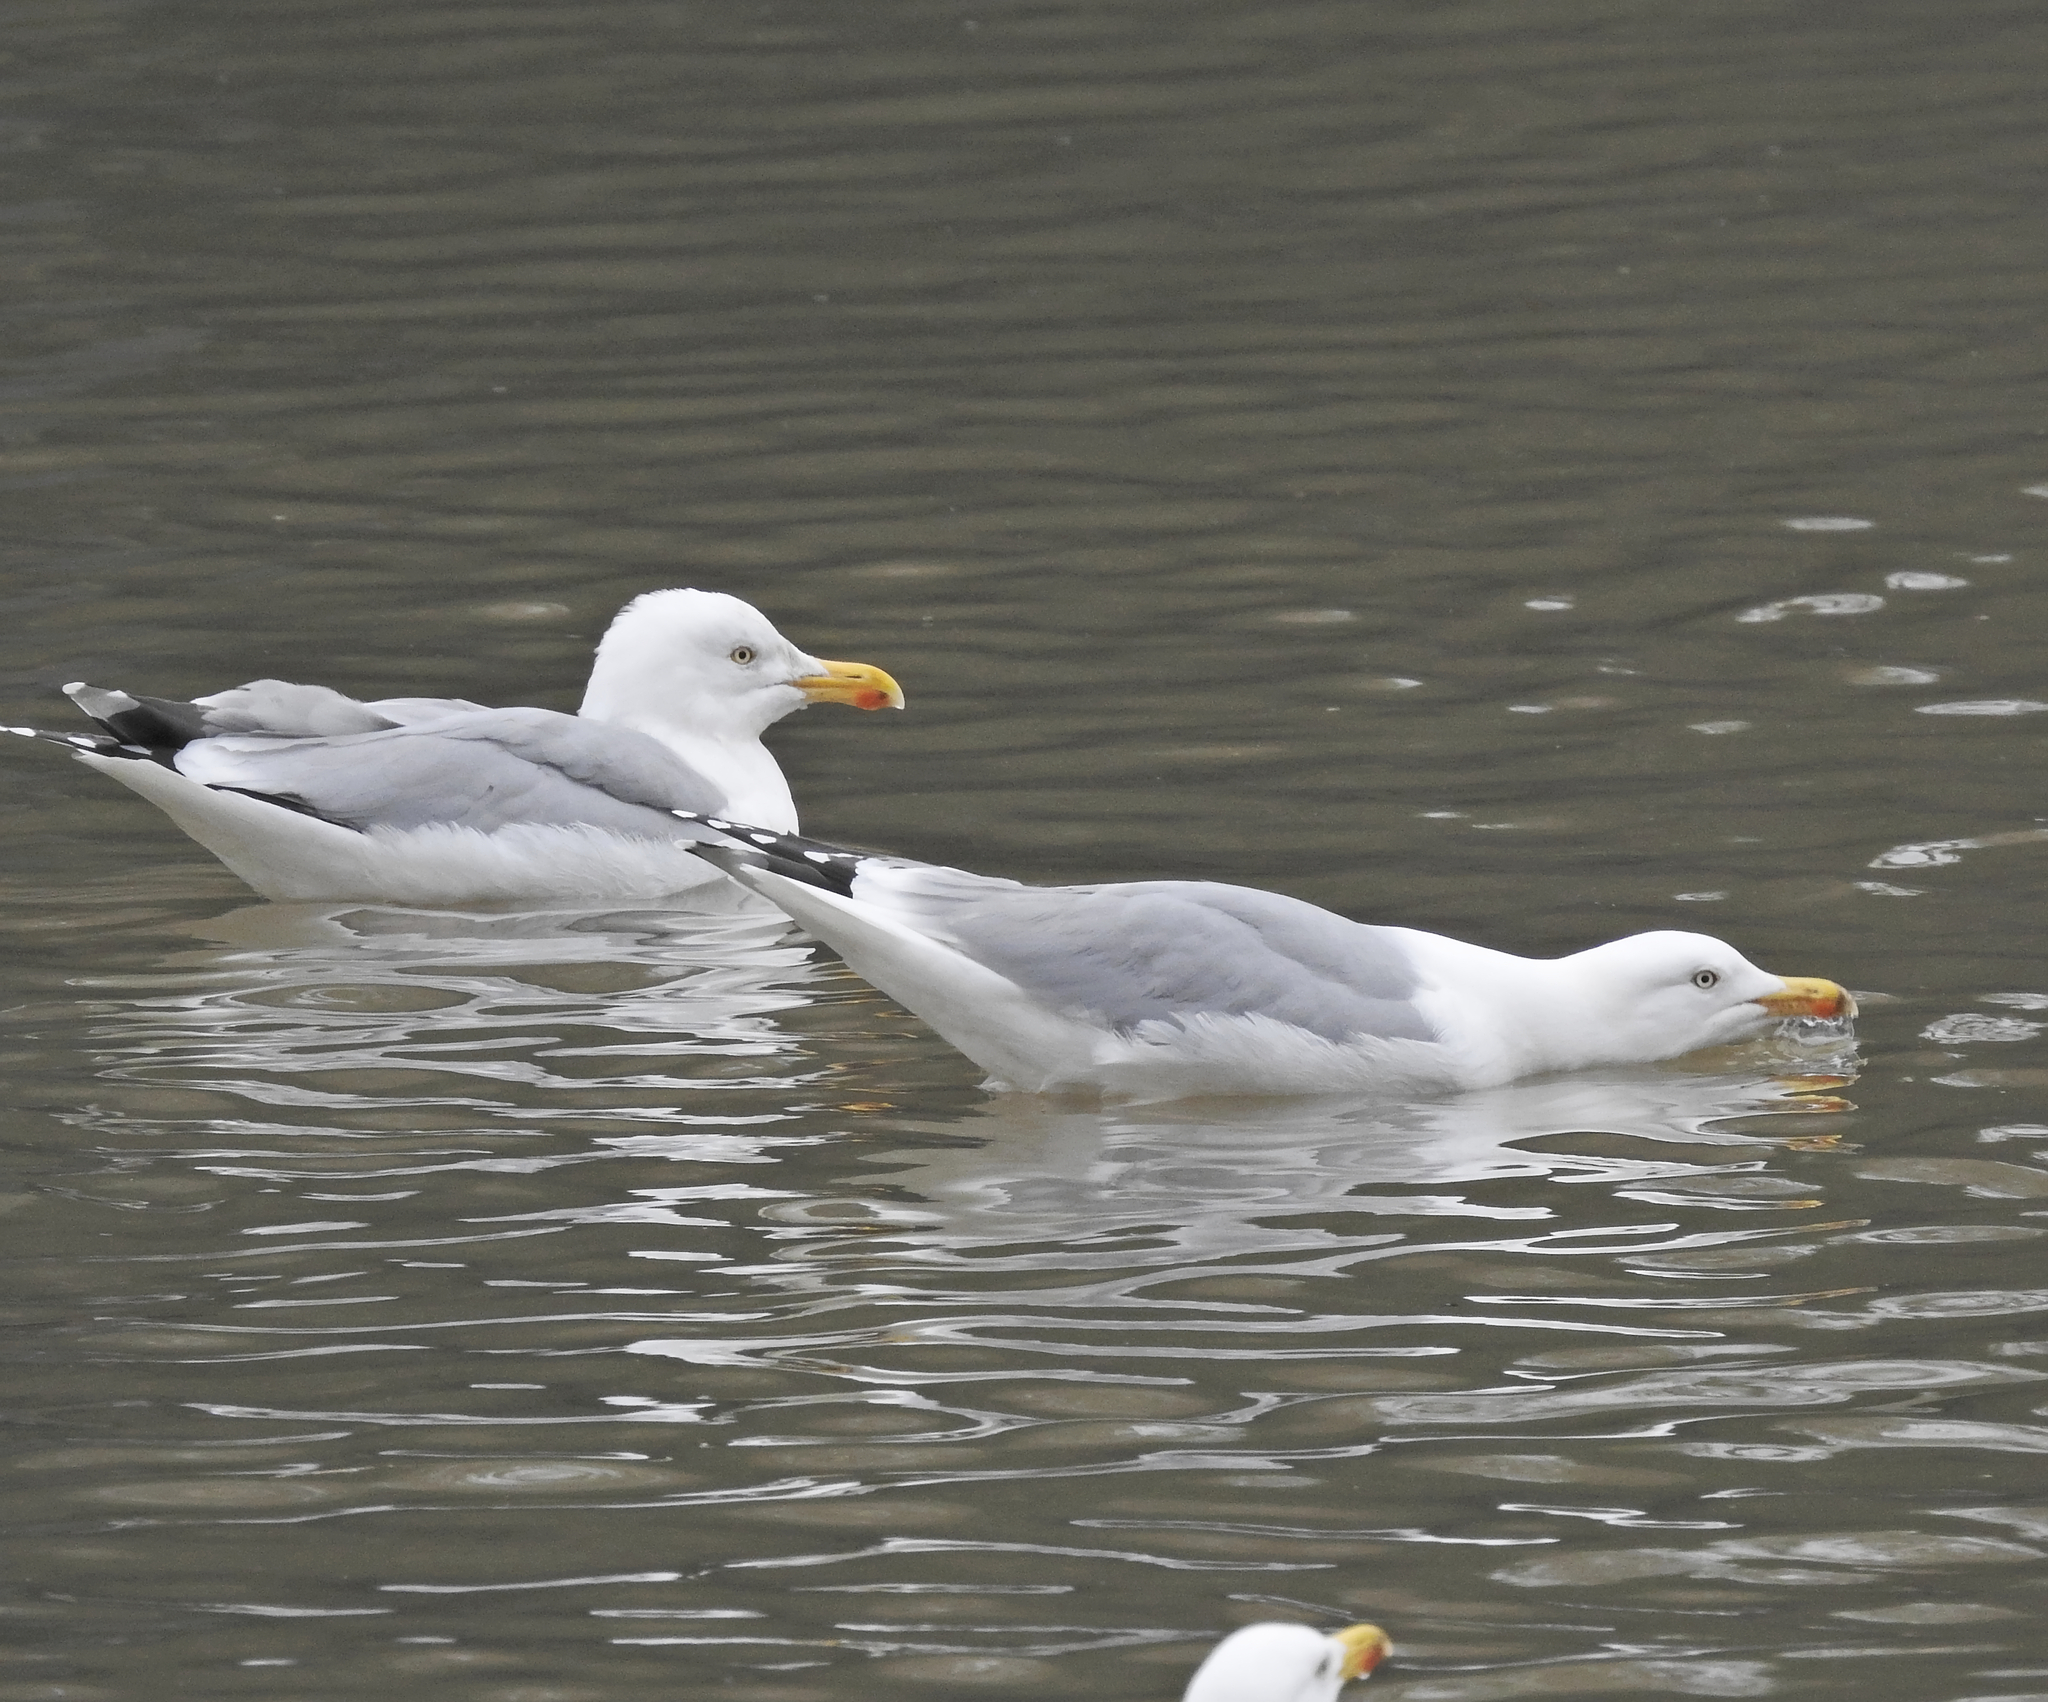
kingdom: Animalia
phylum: Chordata
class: Aves
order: Charadriiformes
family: Laridae
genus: Larus
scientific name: Larus argentatus
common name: Herring gull
